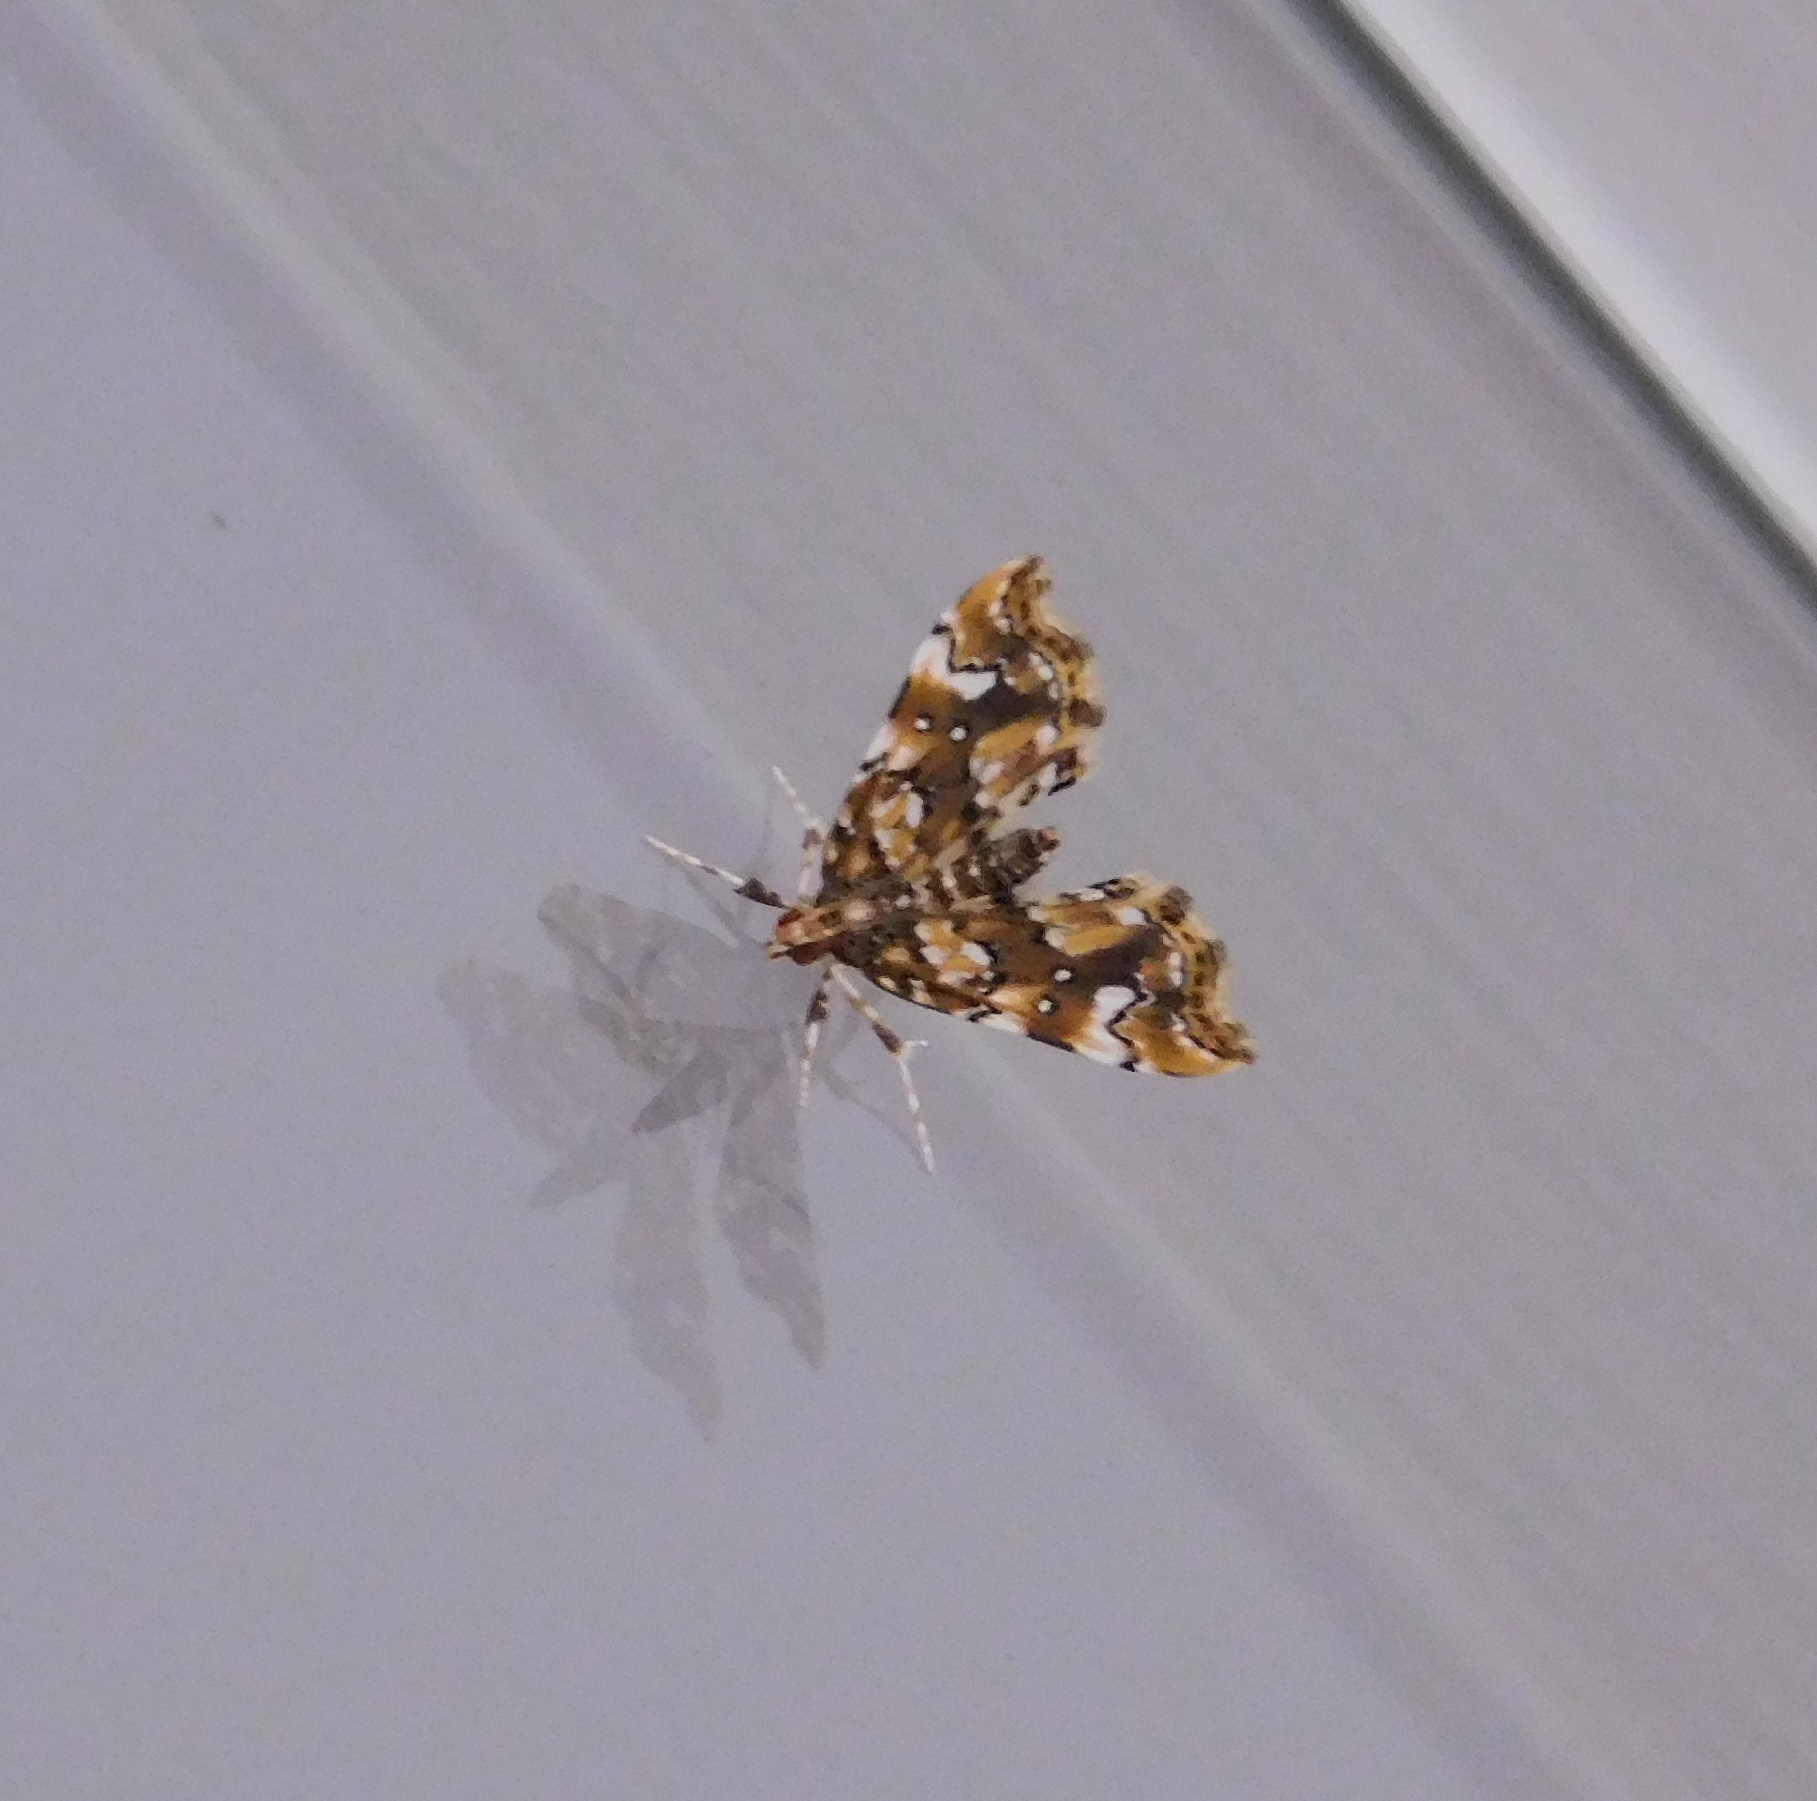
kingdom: Animalia
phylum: Arthropoda
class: Insecta
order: Lepidoptera
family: Pyralidae
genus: Musotima
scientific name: Musotima nitidalis
